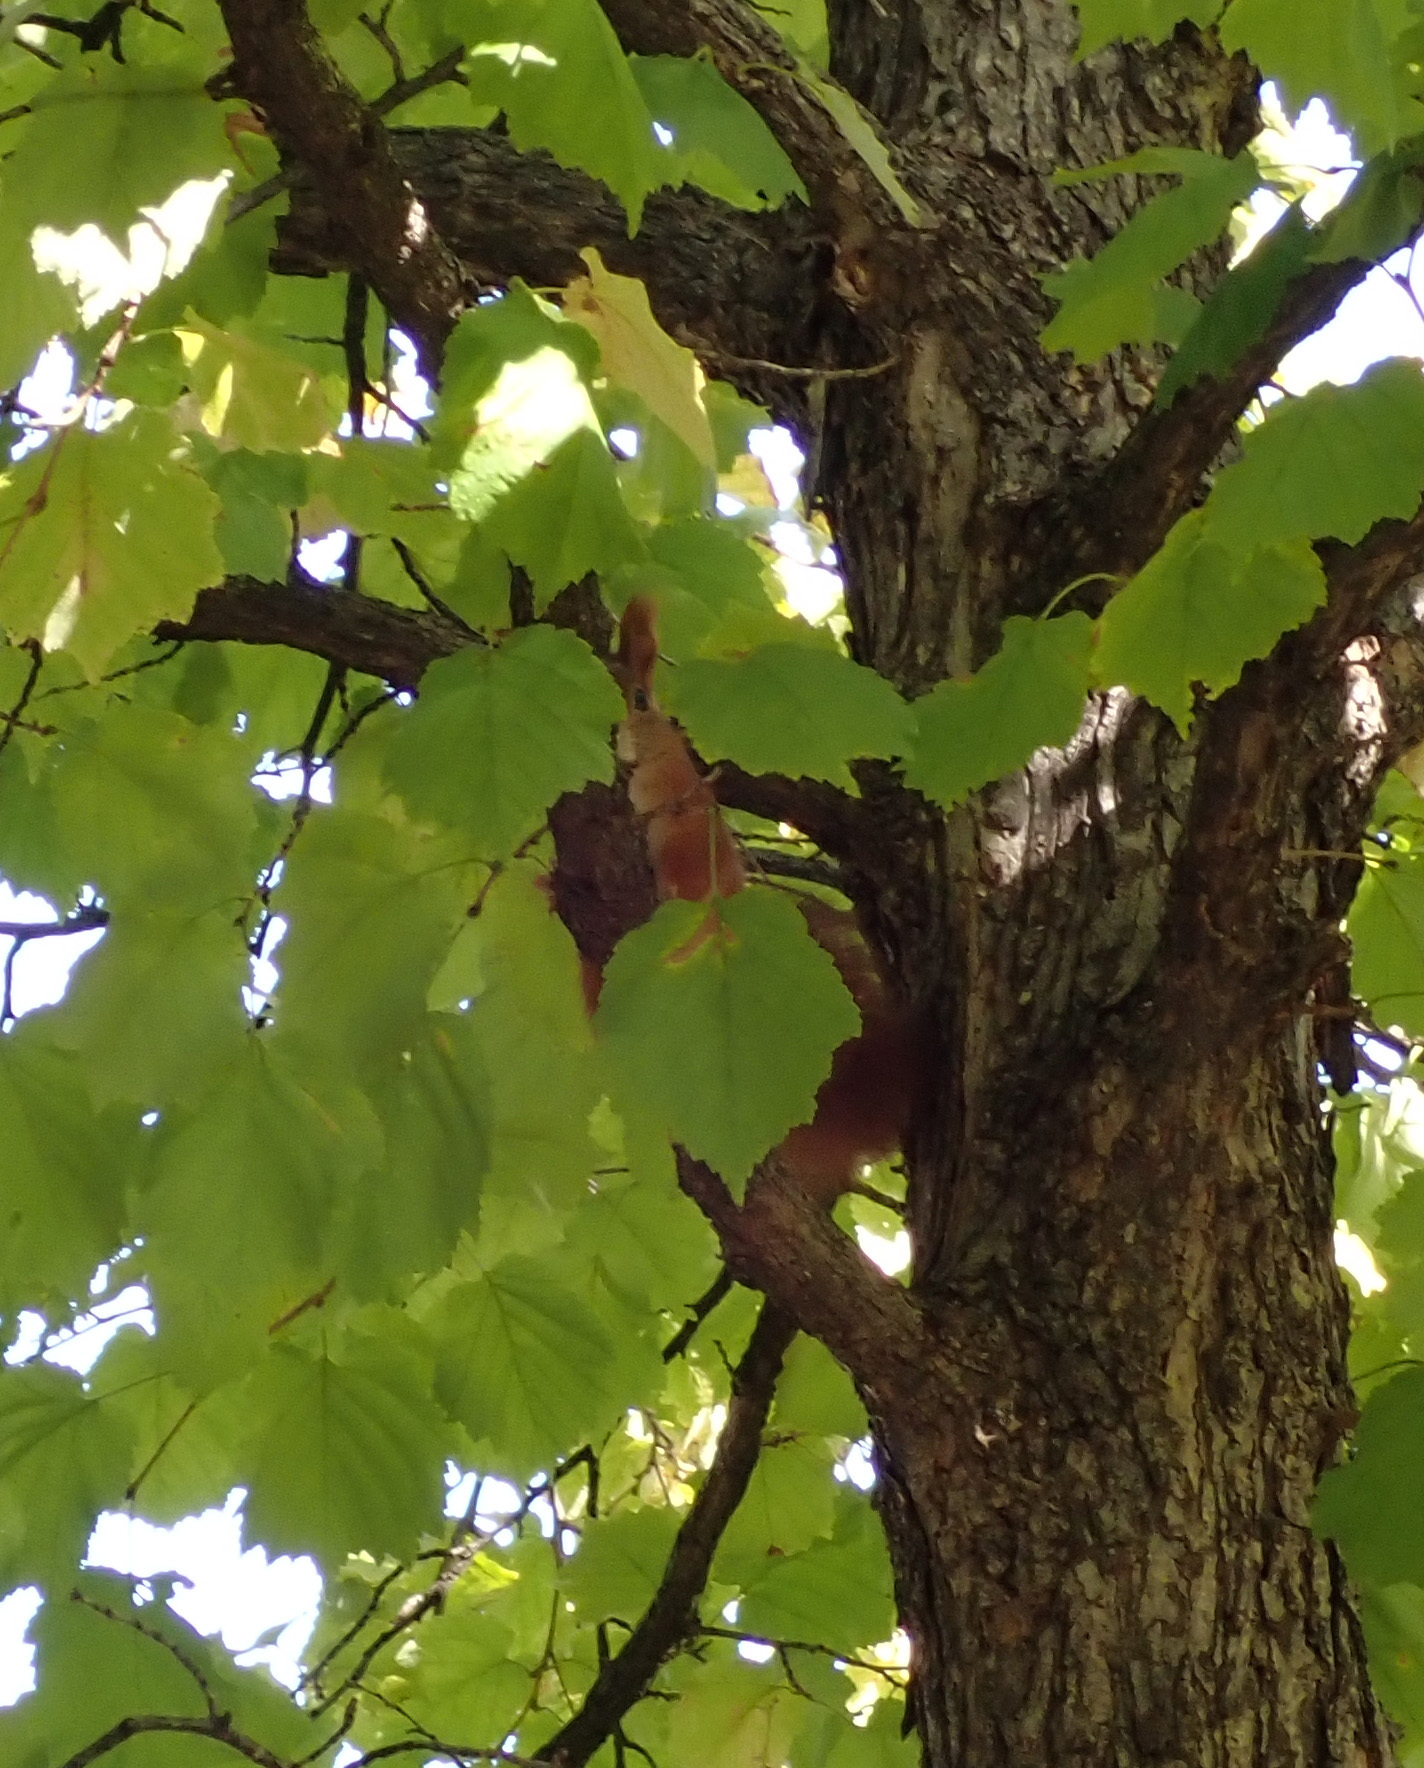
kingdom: Animalia
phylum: Chordata
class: Mammalia
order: Rodentia
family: Sciuridae
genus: Sciurus
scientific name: Sciurus vulgaris
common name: Eurasian red squirrel
